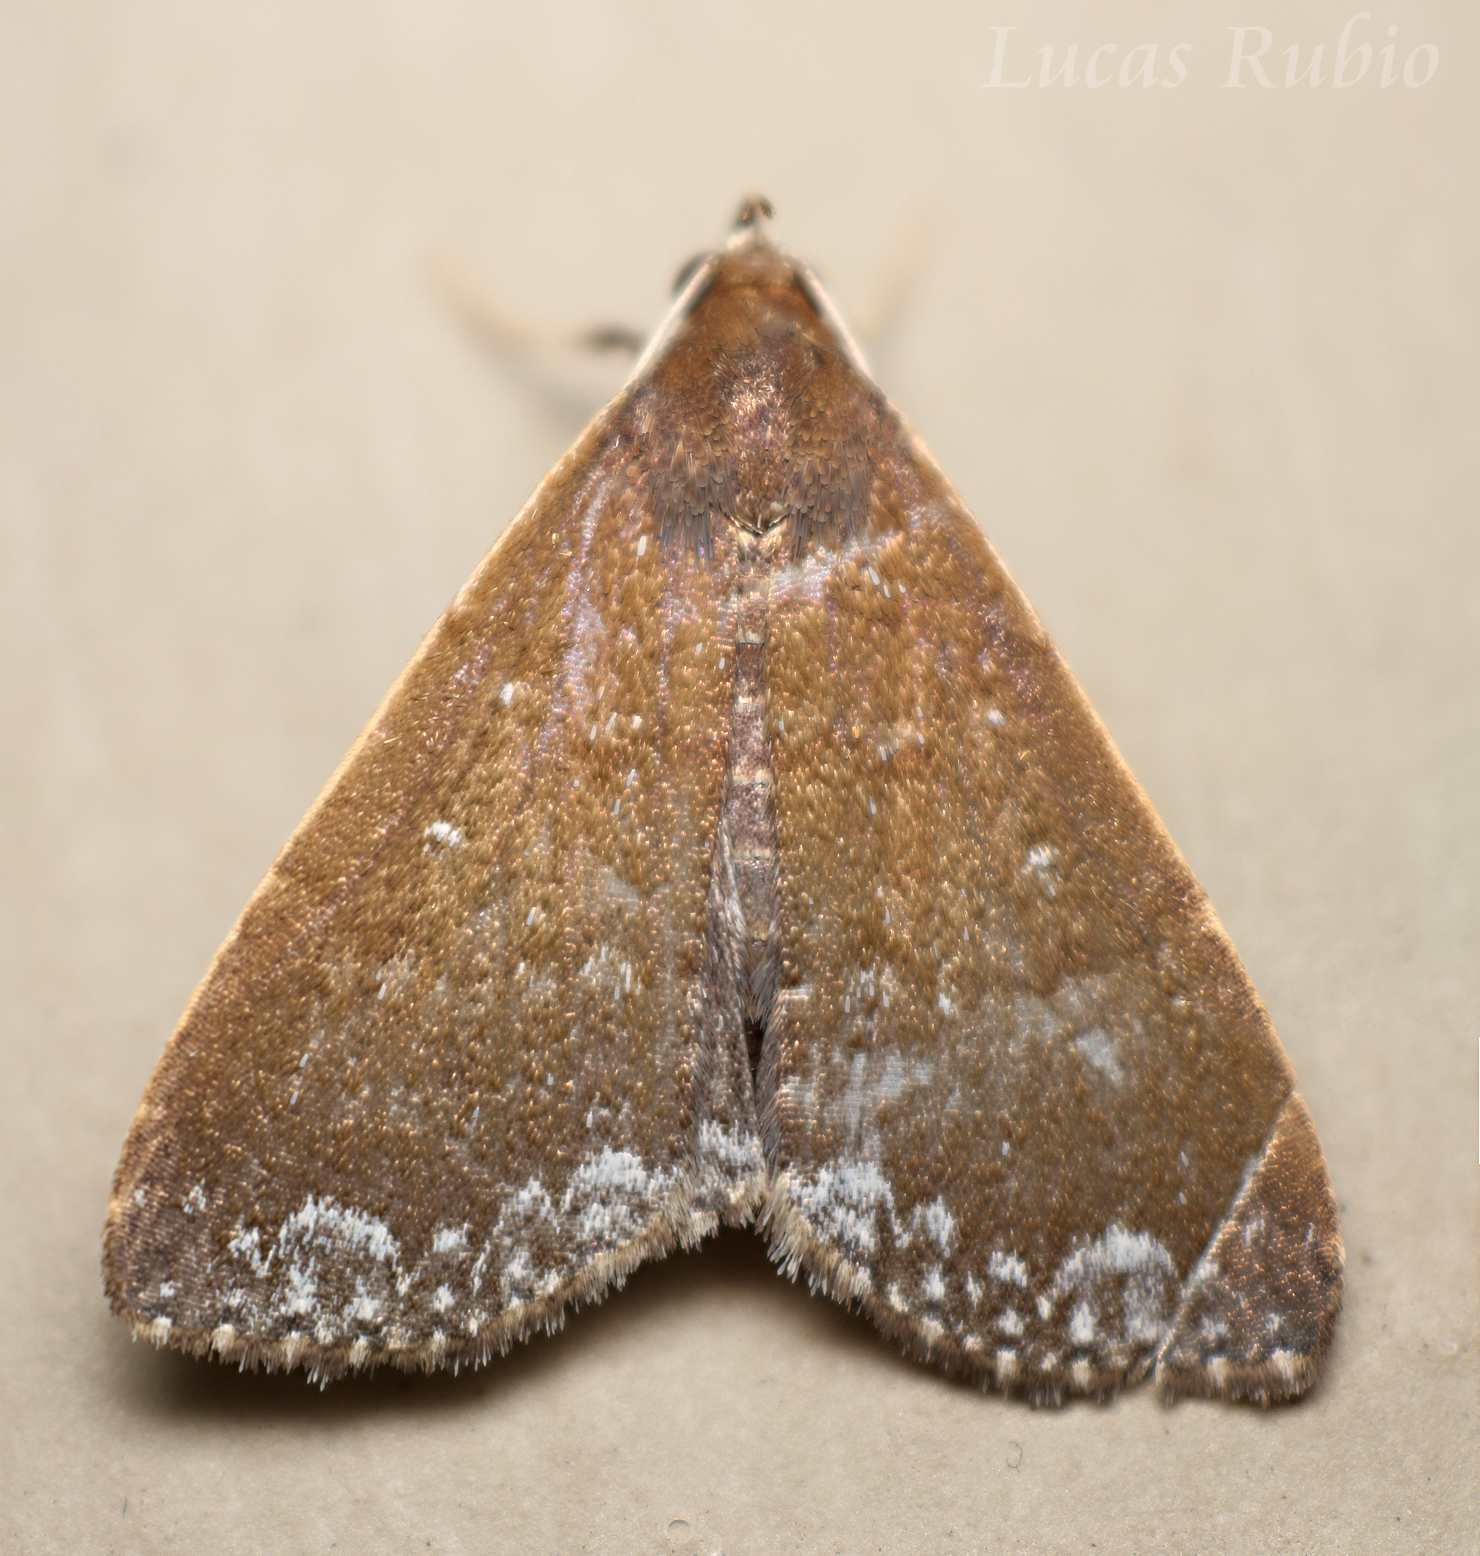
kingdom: Animalia
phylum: Arthropoda
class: Insecta
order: Lepidoptera
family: Erebidae
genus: Aristaria
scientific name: Aristaria theroalis
